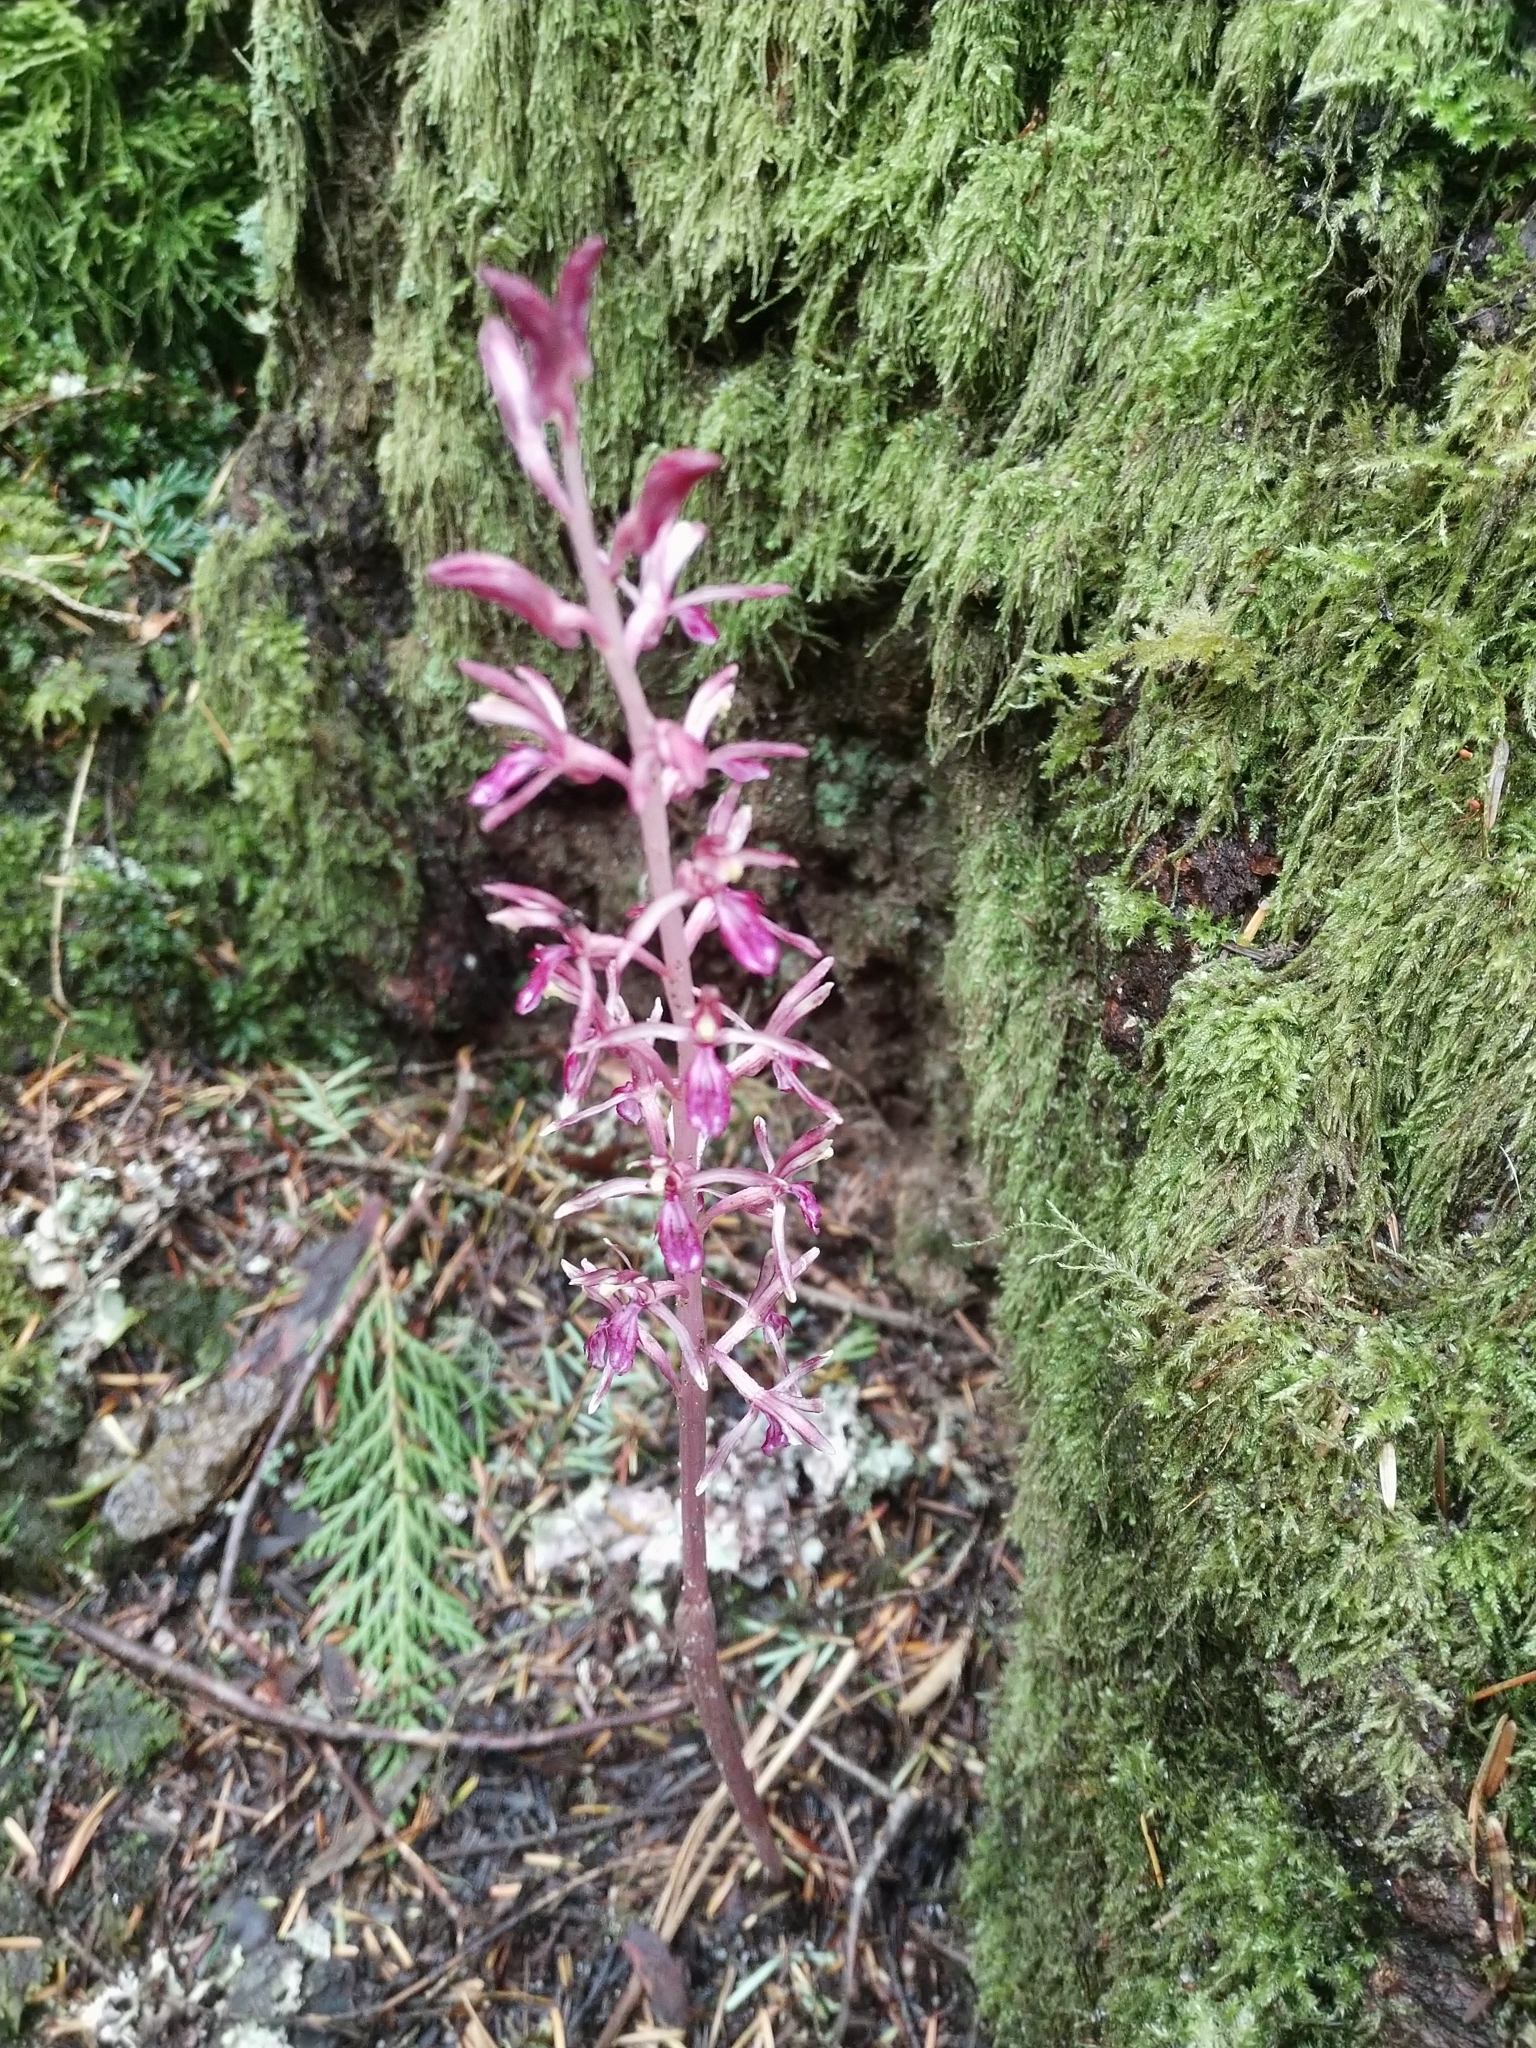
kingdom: Plantae
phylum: Tracheophyta
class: Liliopsida
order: Asparagales
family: Orchidaceae
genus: Corallorhiza
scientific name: Corallorhiza mertensiana
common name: Pacific coralroot
